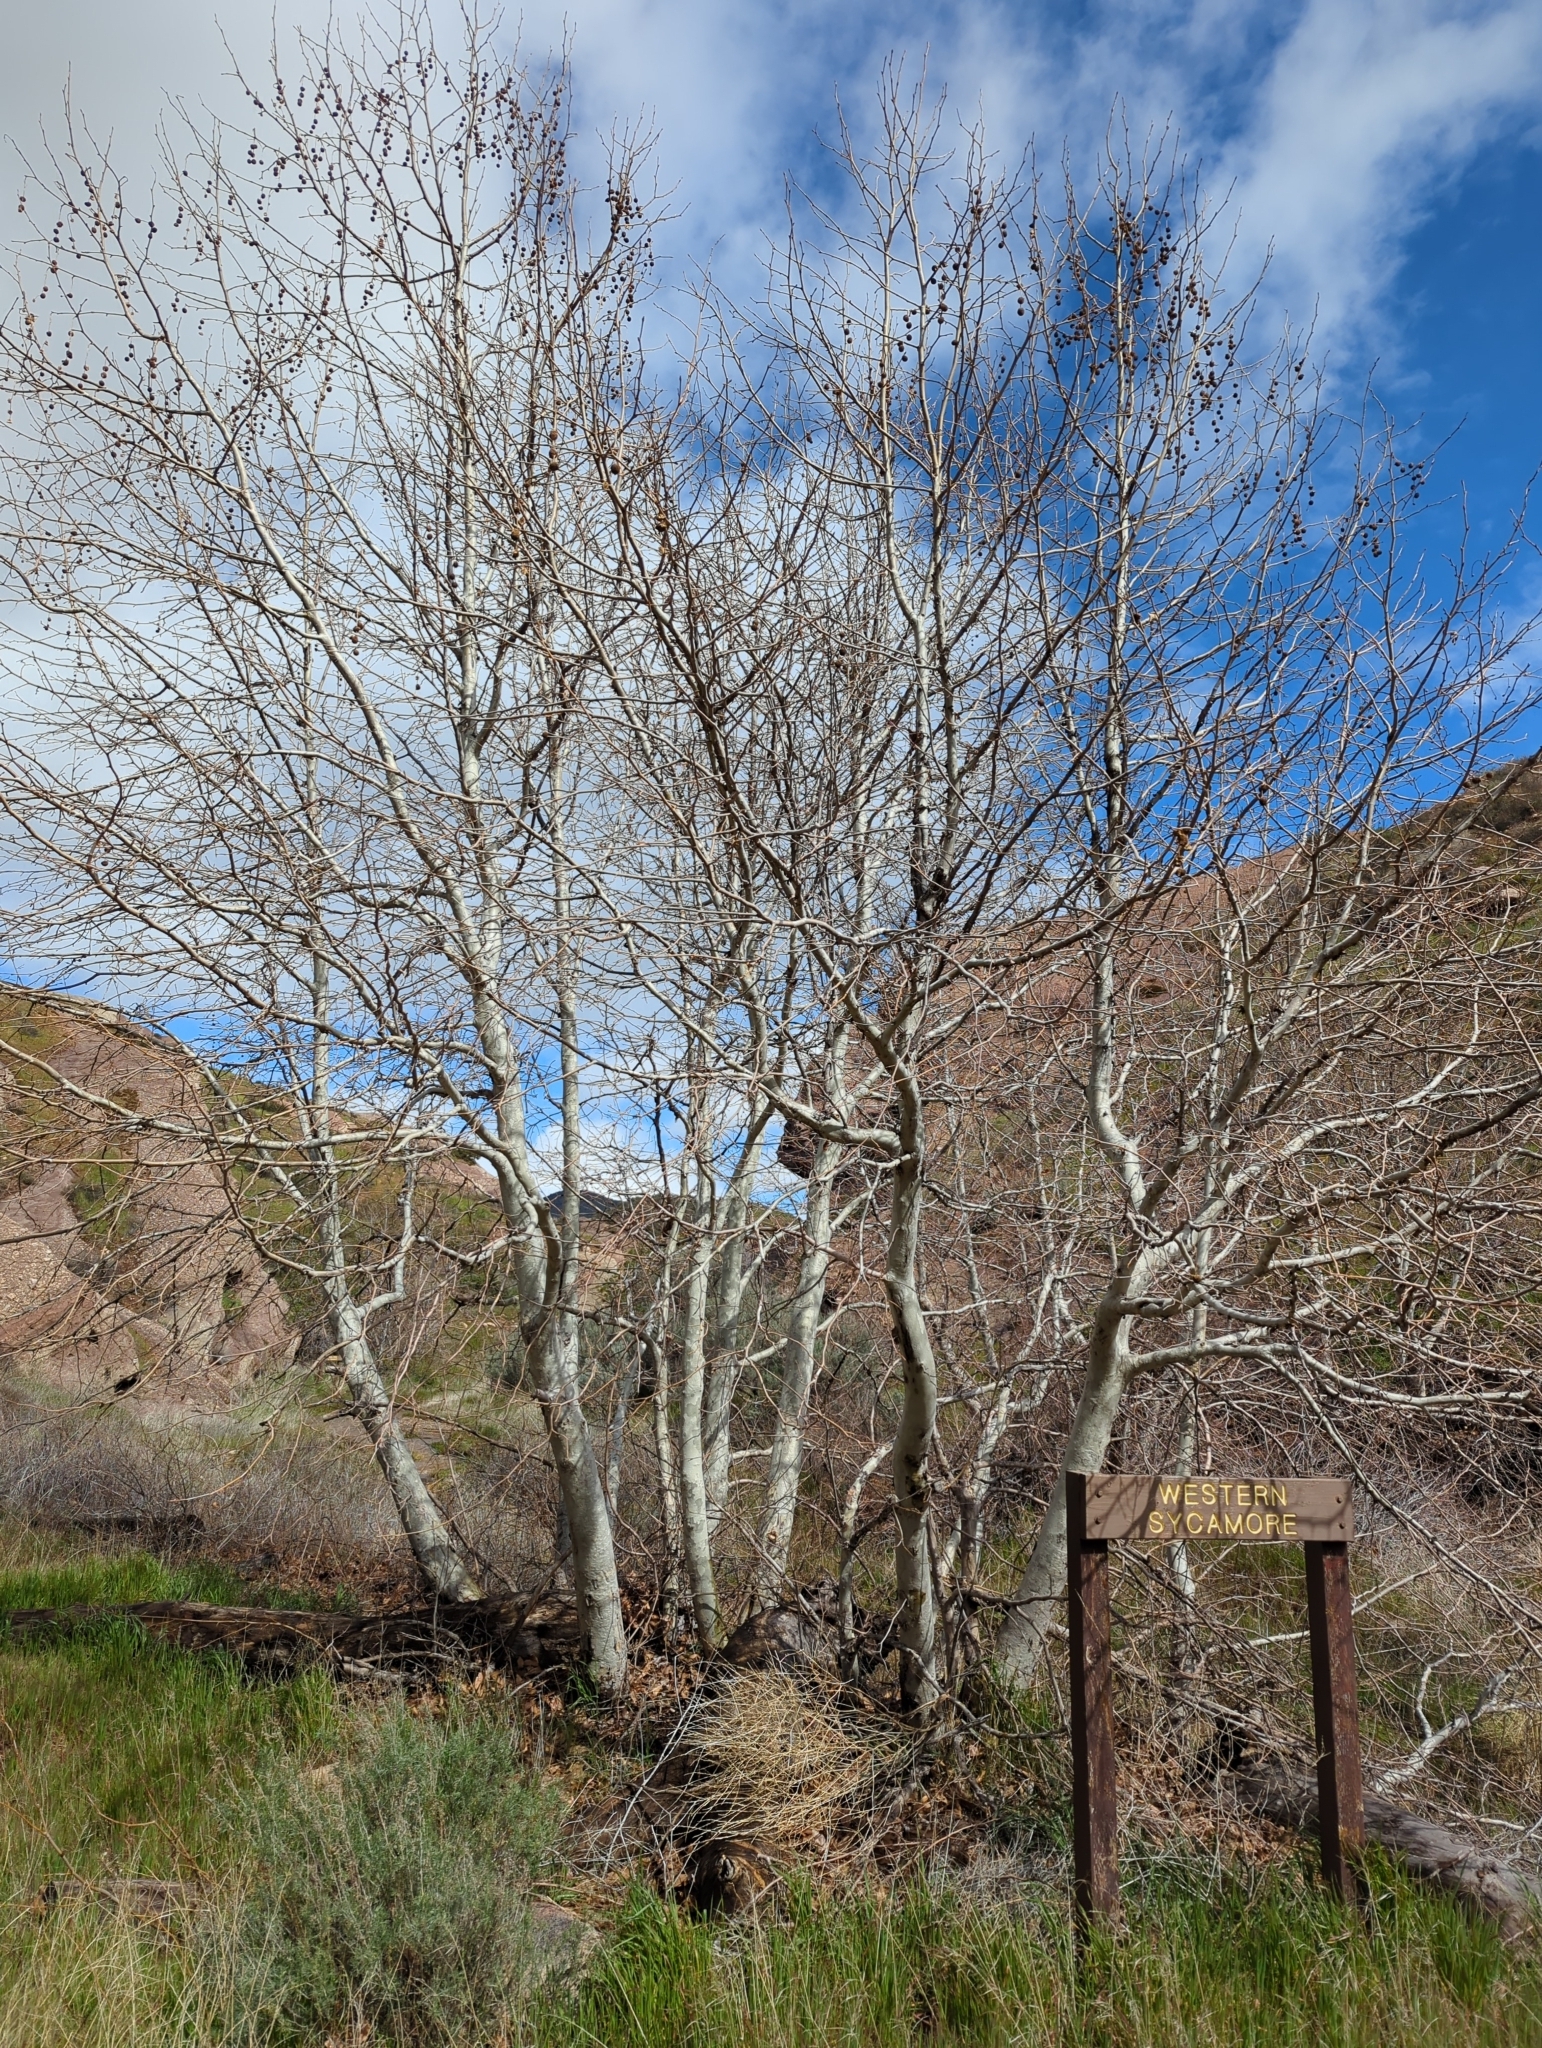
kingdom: Plantae
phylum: Tracheophyta
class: Magnoliopsida
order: Proteales
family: Platanaceae
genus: Platanus
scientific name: Platanus racemosa
